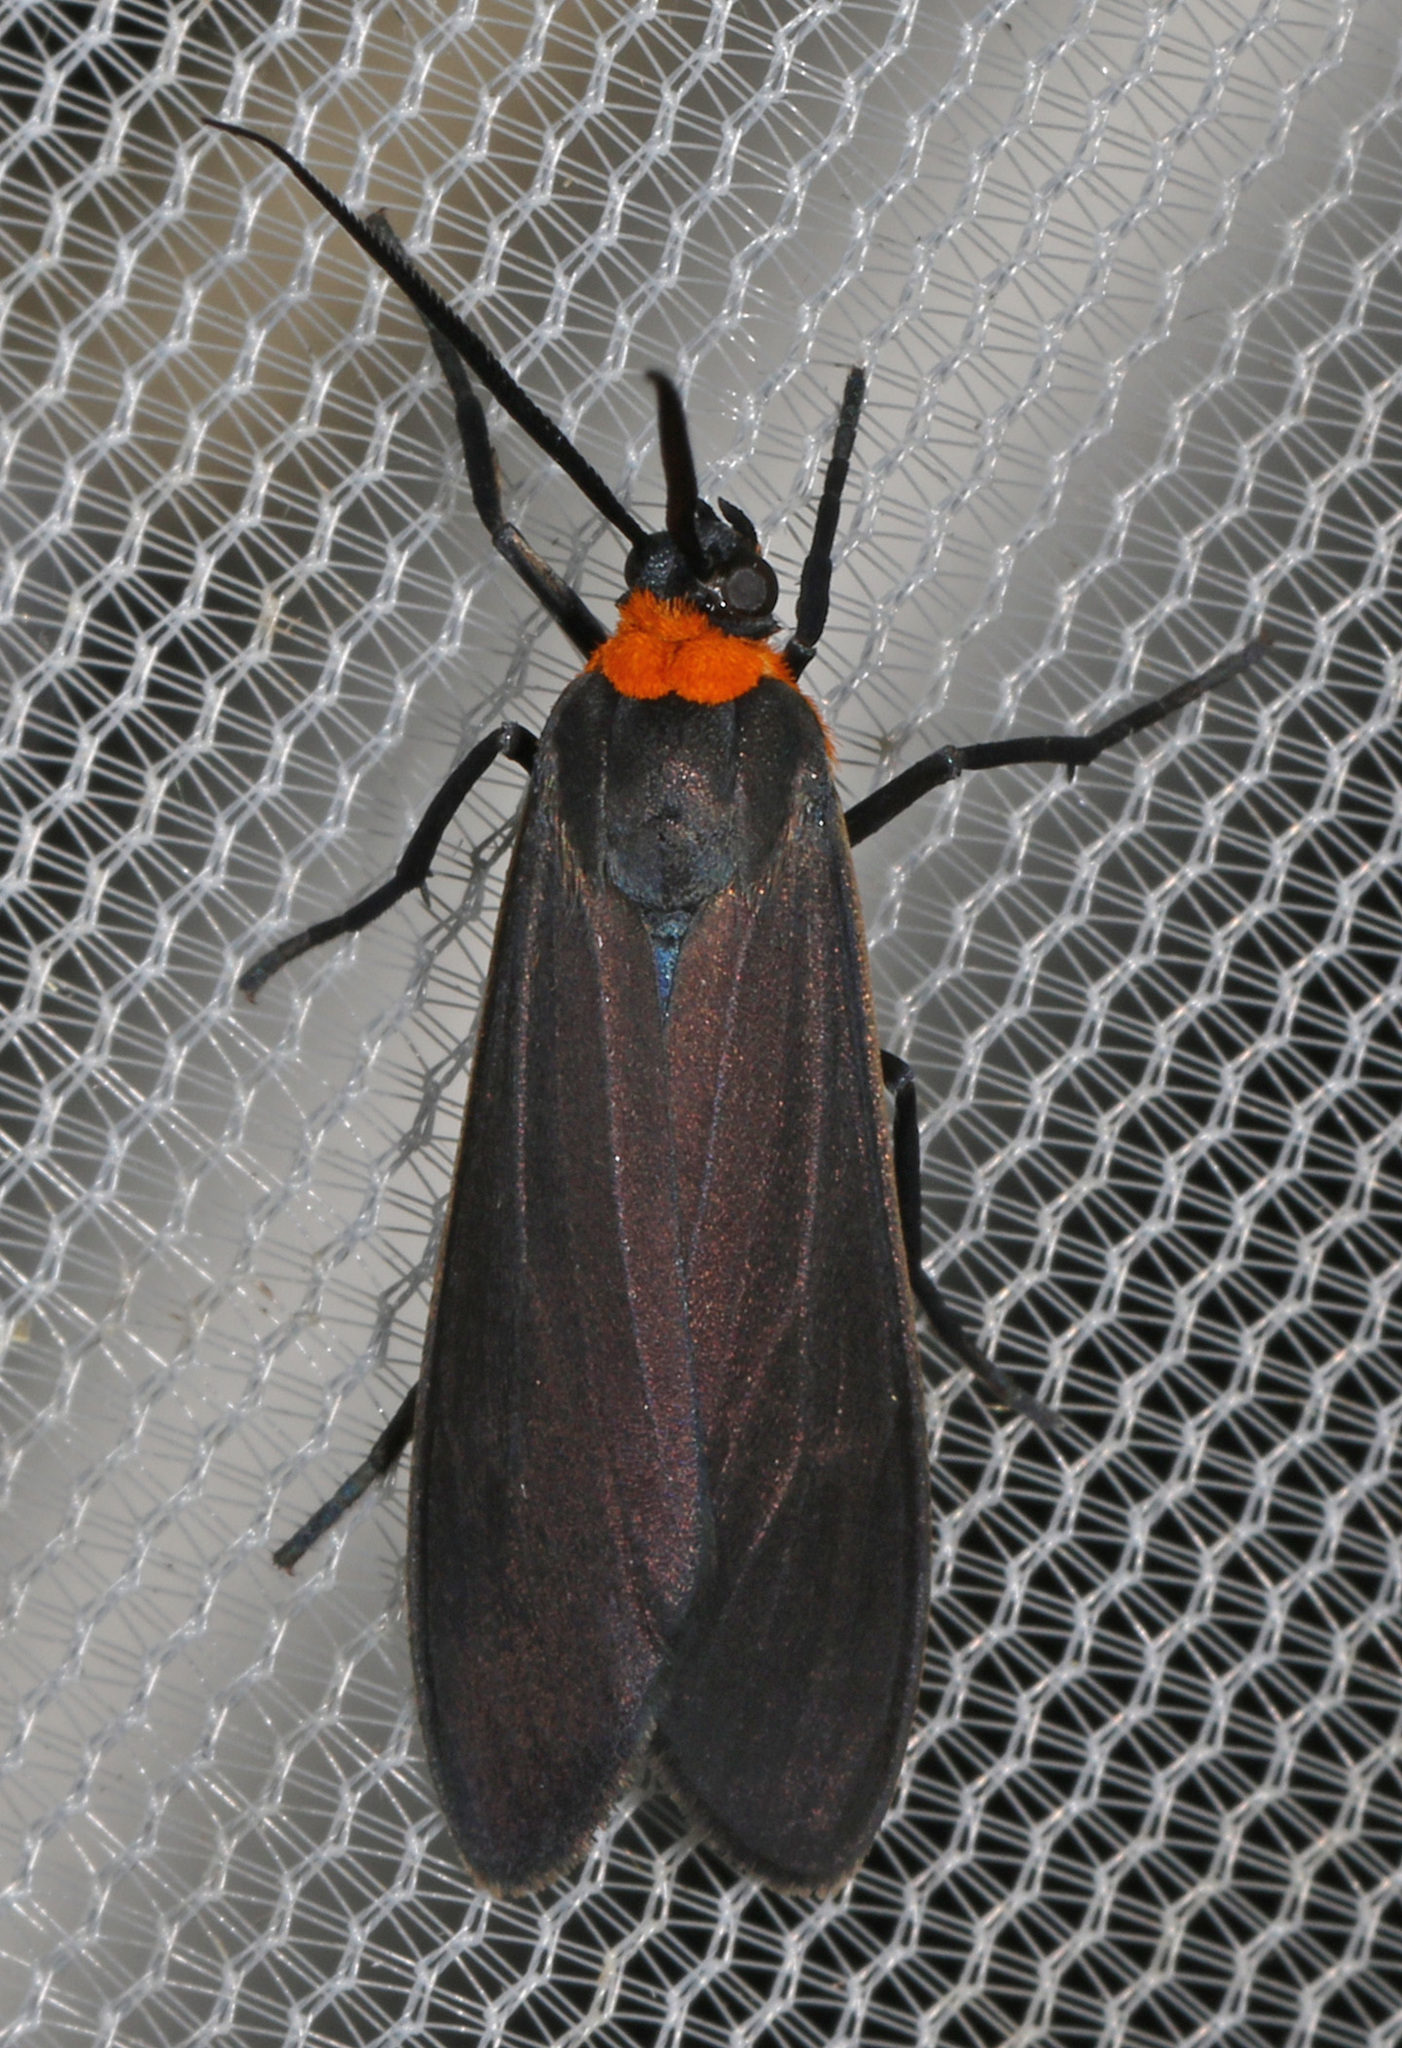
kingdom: Animalia
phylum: Arthropoda
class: Insecta
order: Lepidoptera
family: Erebidae
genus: Cisseps
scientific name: Cisseps fulvicollis
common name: Yellow-collared scape moth
